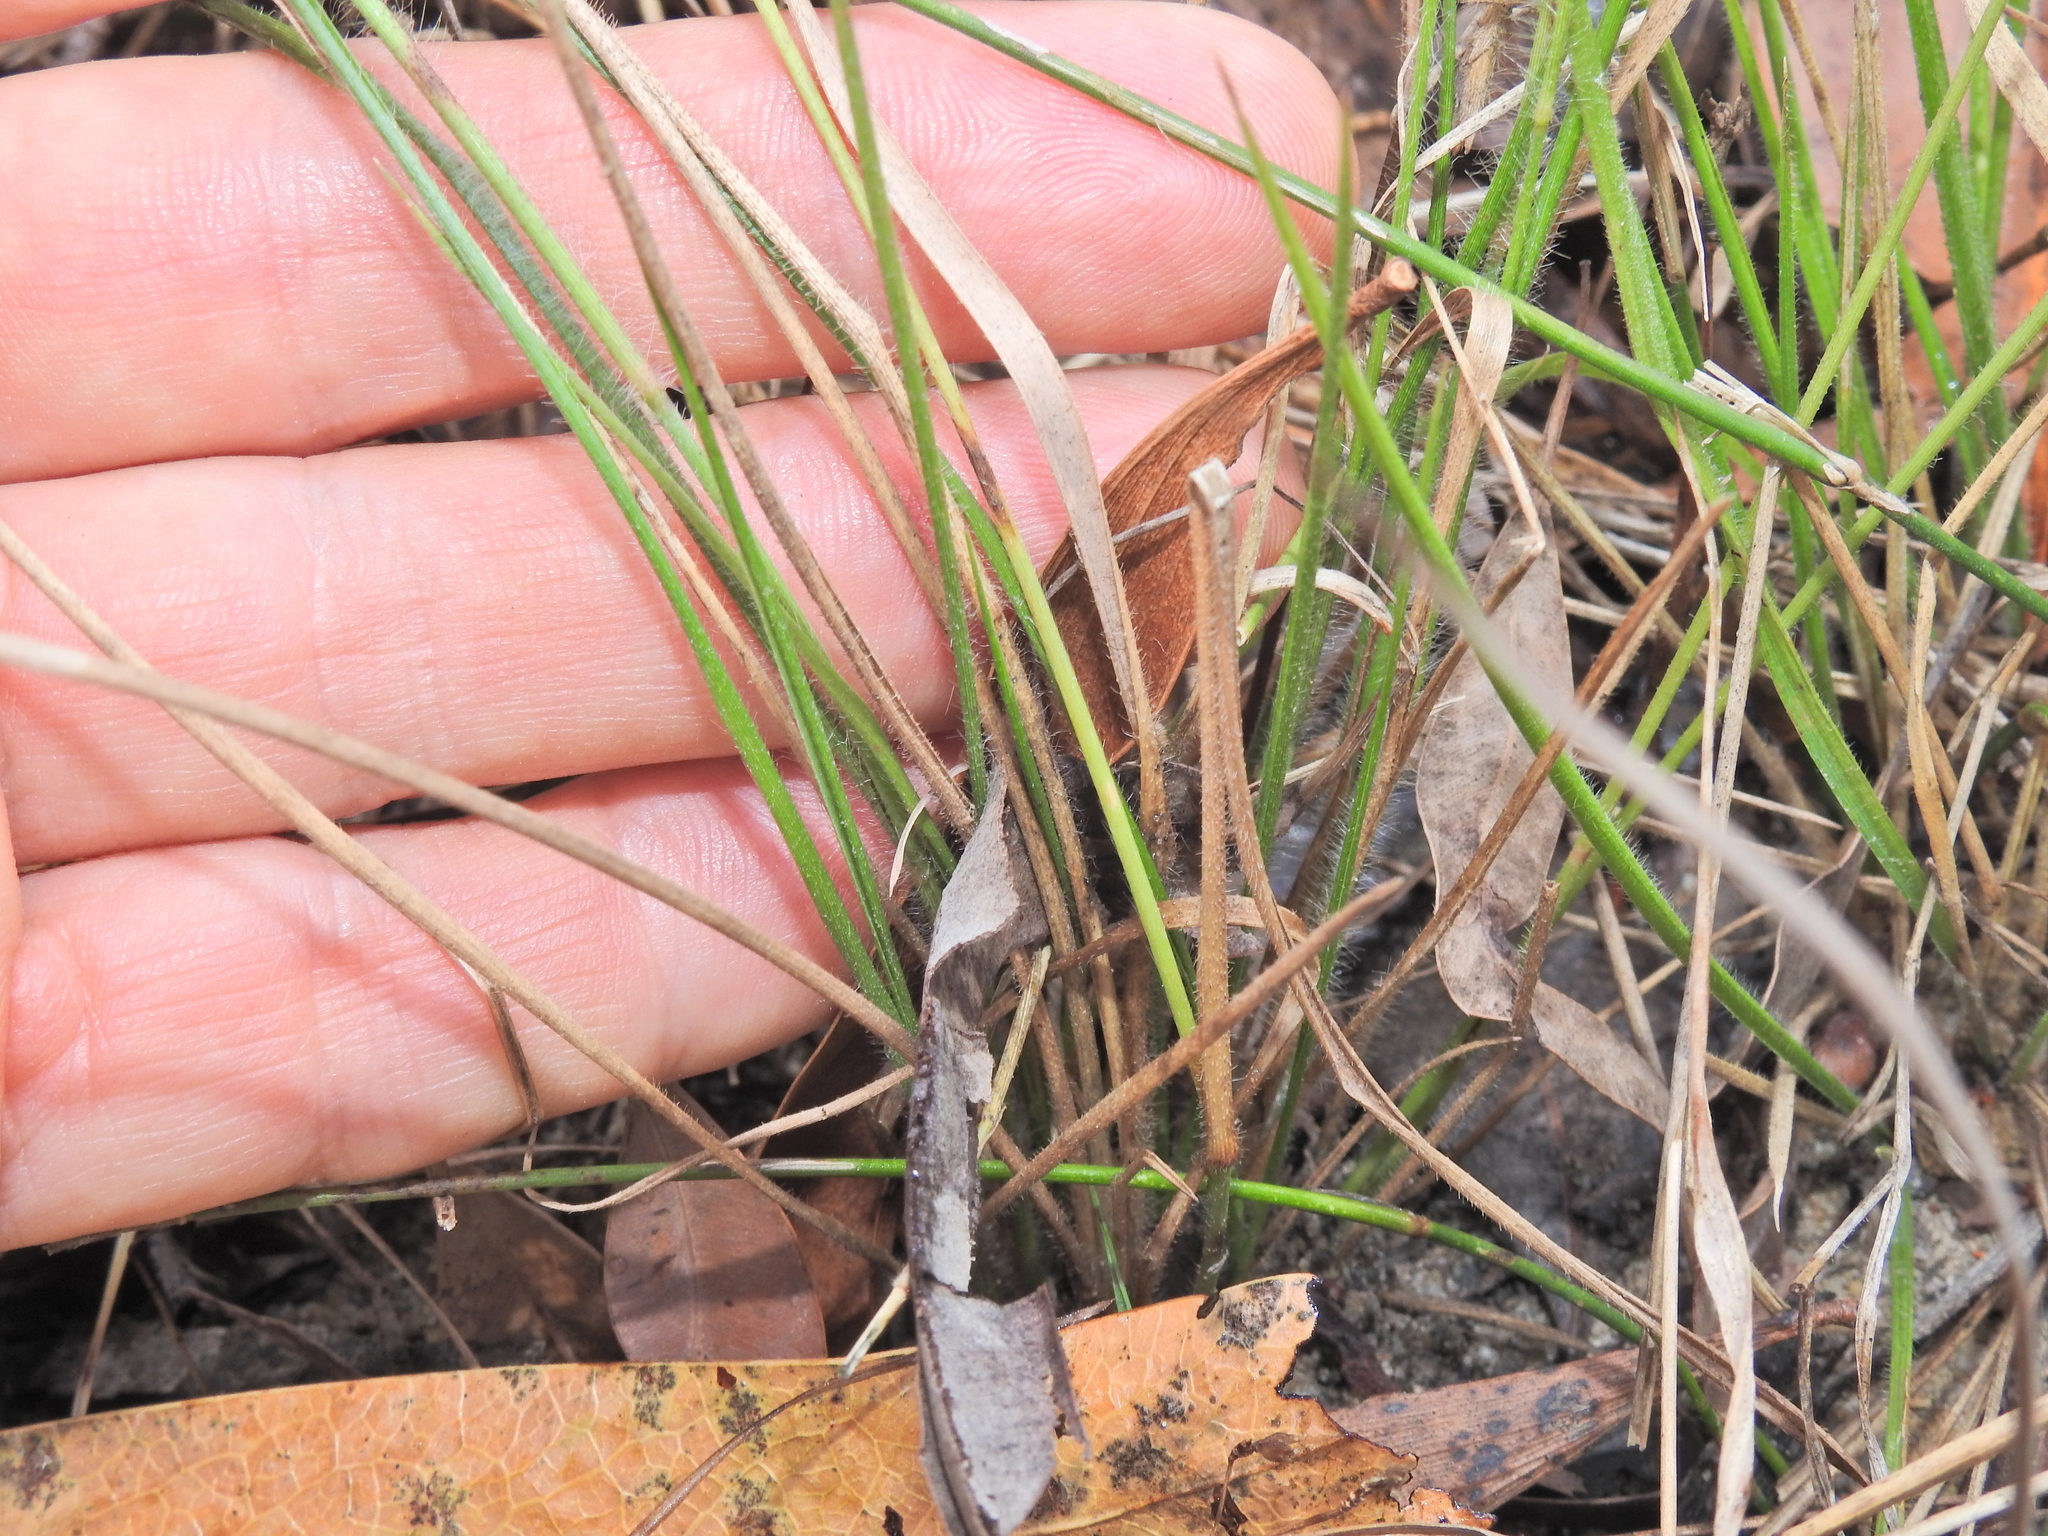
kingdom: Plantae
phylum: Tracheophyta
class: Liliopsida
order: Poales
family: Poaceae
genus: Panicum
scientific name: Panicum effusum
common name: Hairy panic grass
